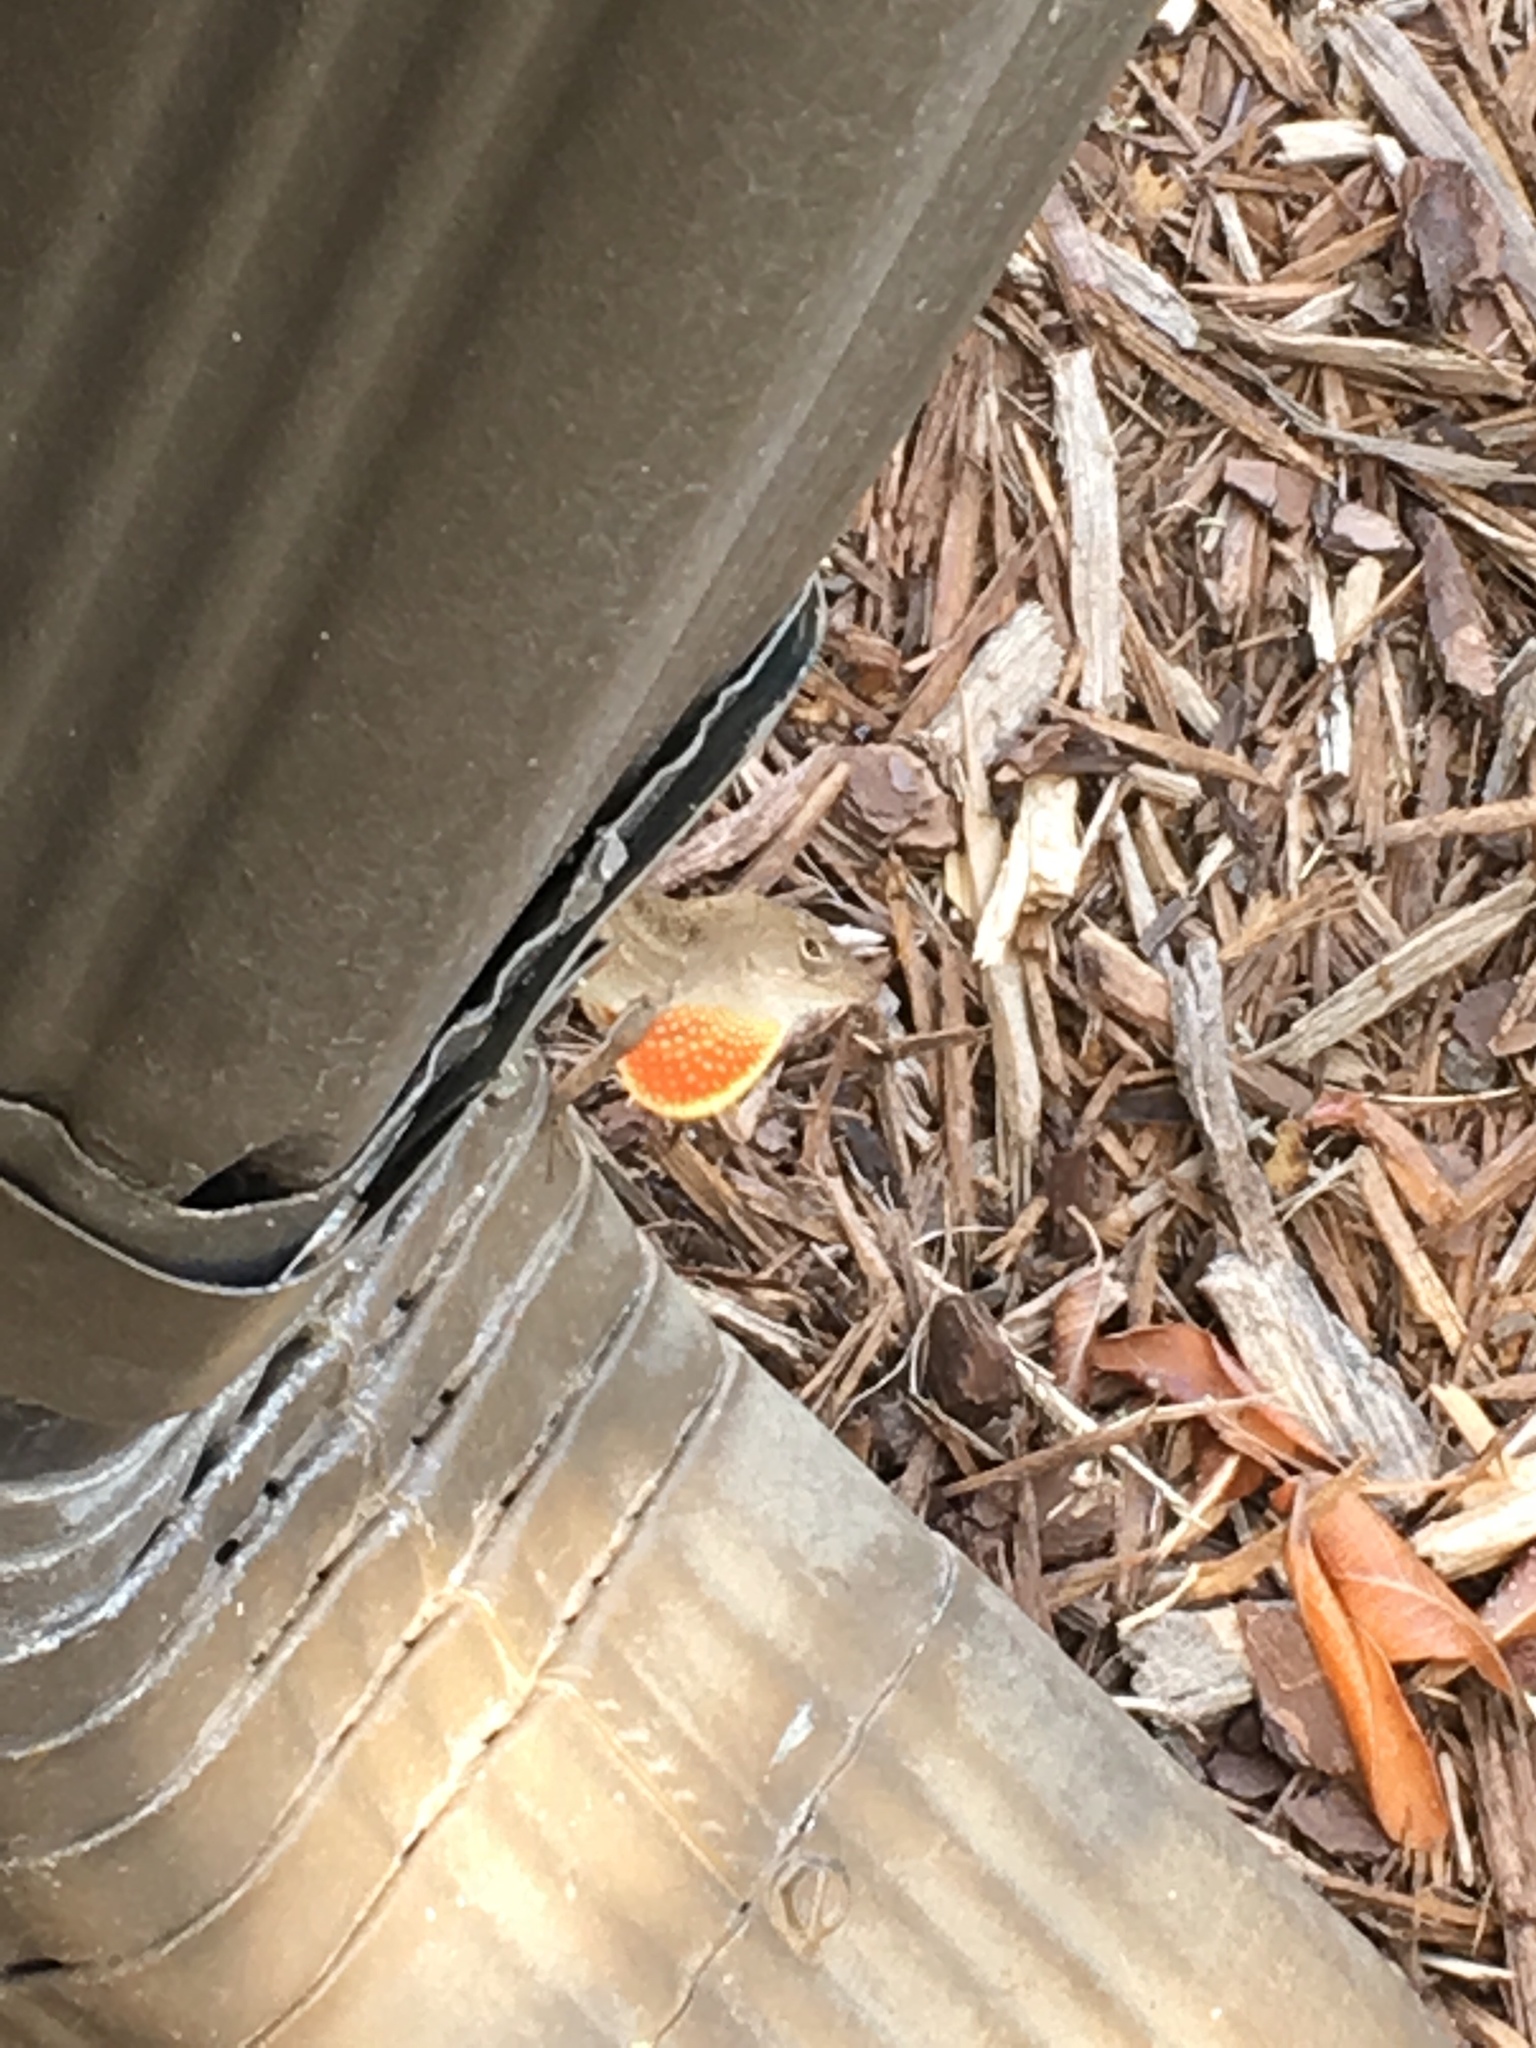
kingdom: Animalia
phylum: Chordata
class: Squamata
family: Dactyloidae
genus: Anolis
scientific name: Anolis sagrei
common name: Brown anole
